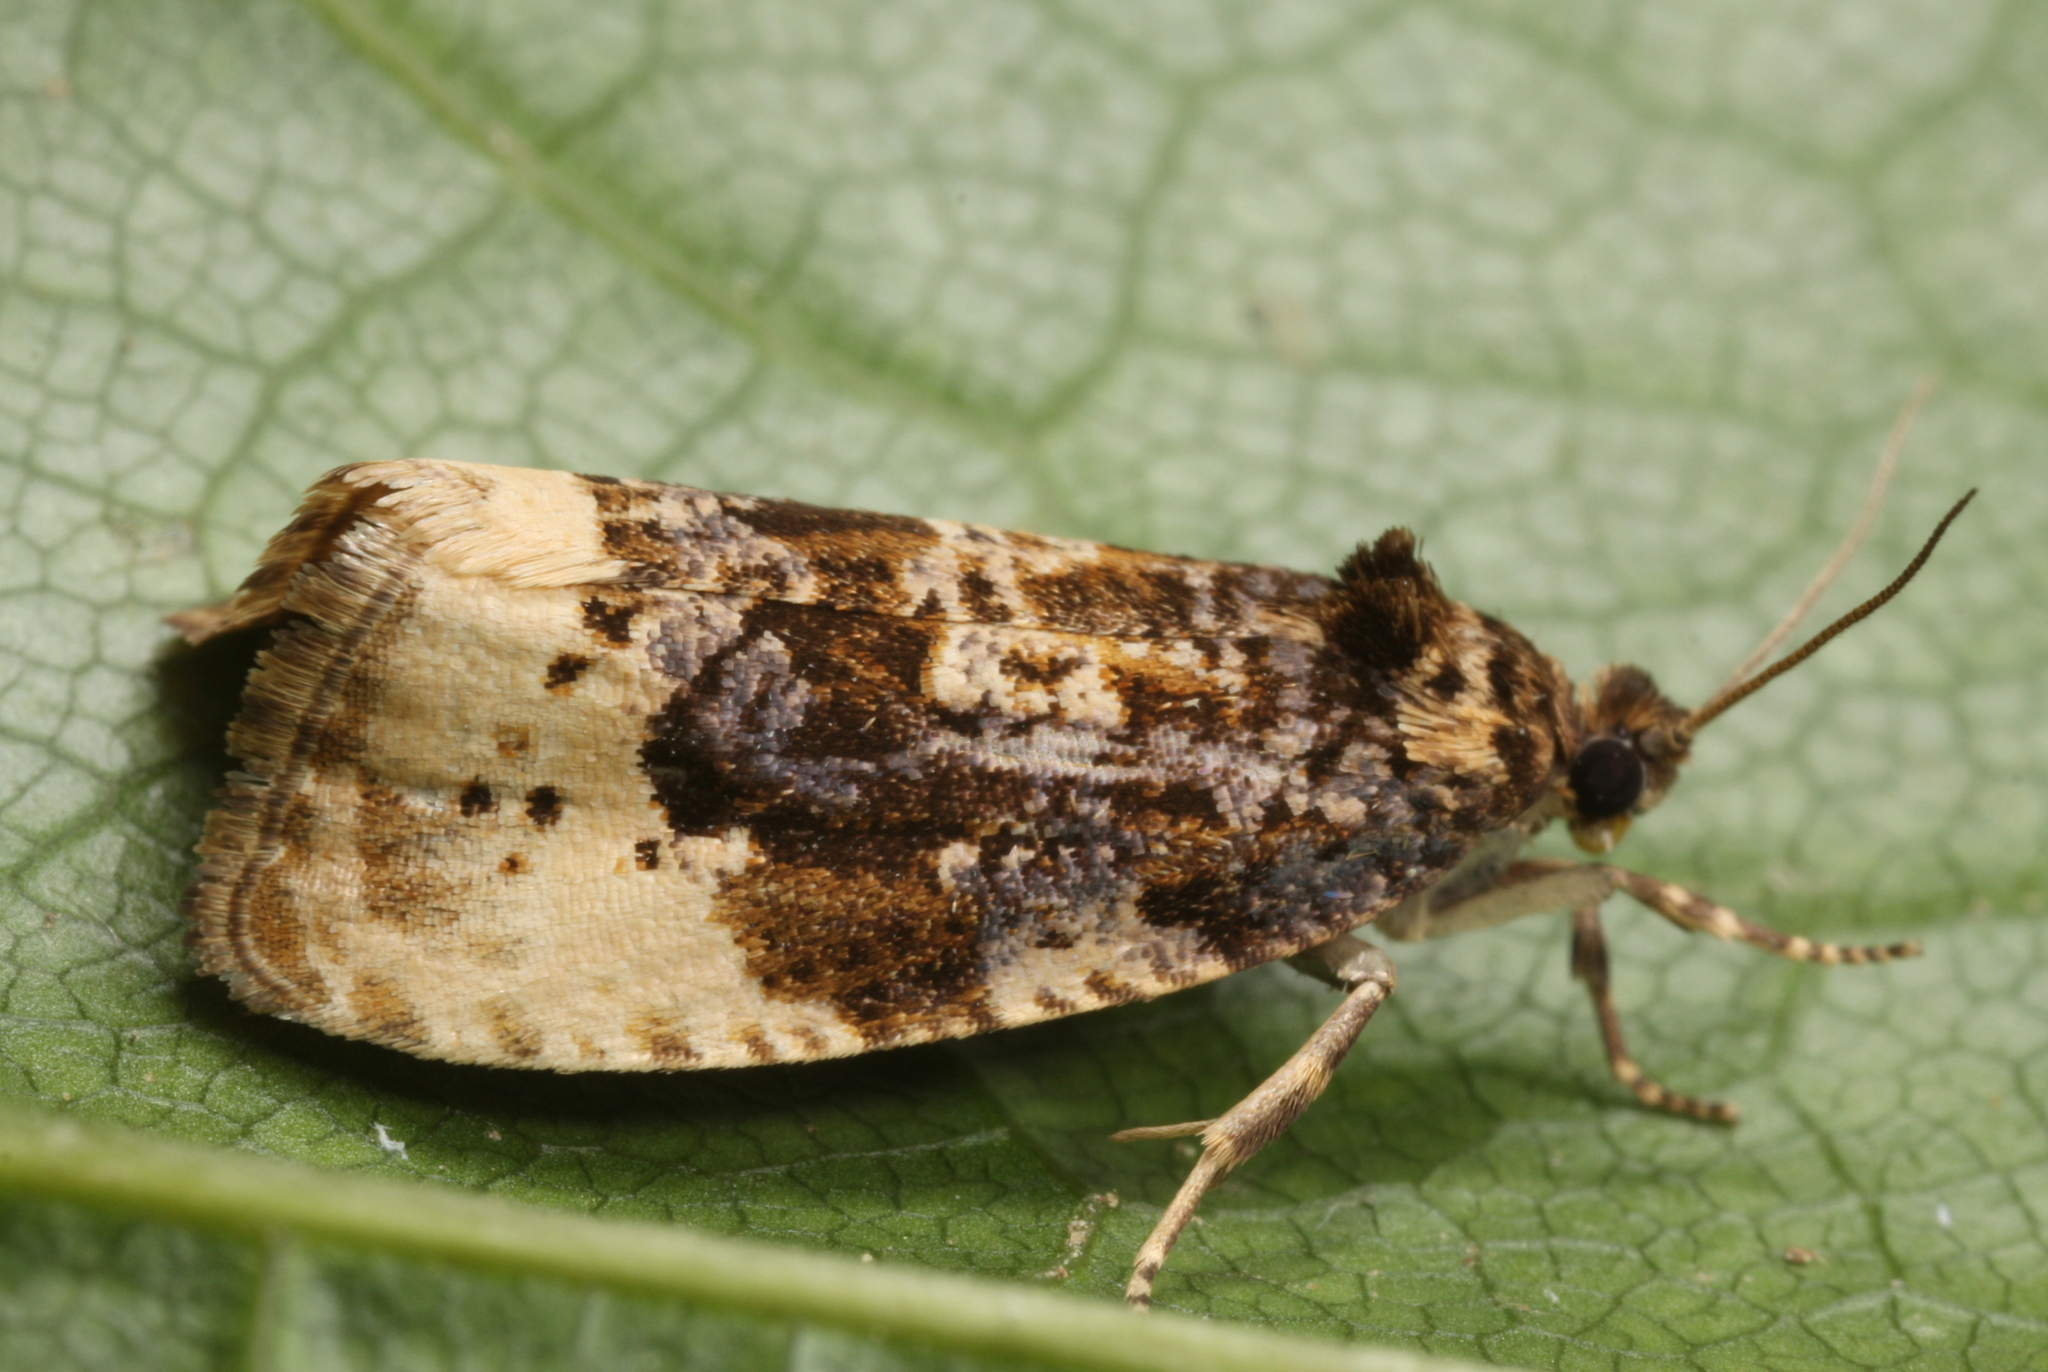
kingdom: Animalia
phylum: Arthropoda
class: Insecta
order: Lepidoptera
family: Tortricidae
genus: Hedya
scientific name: Hedya ochroleucana
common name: Buff-tipped marble
